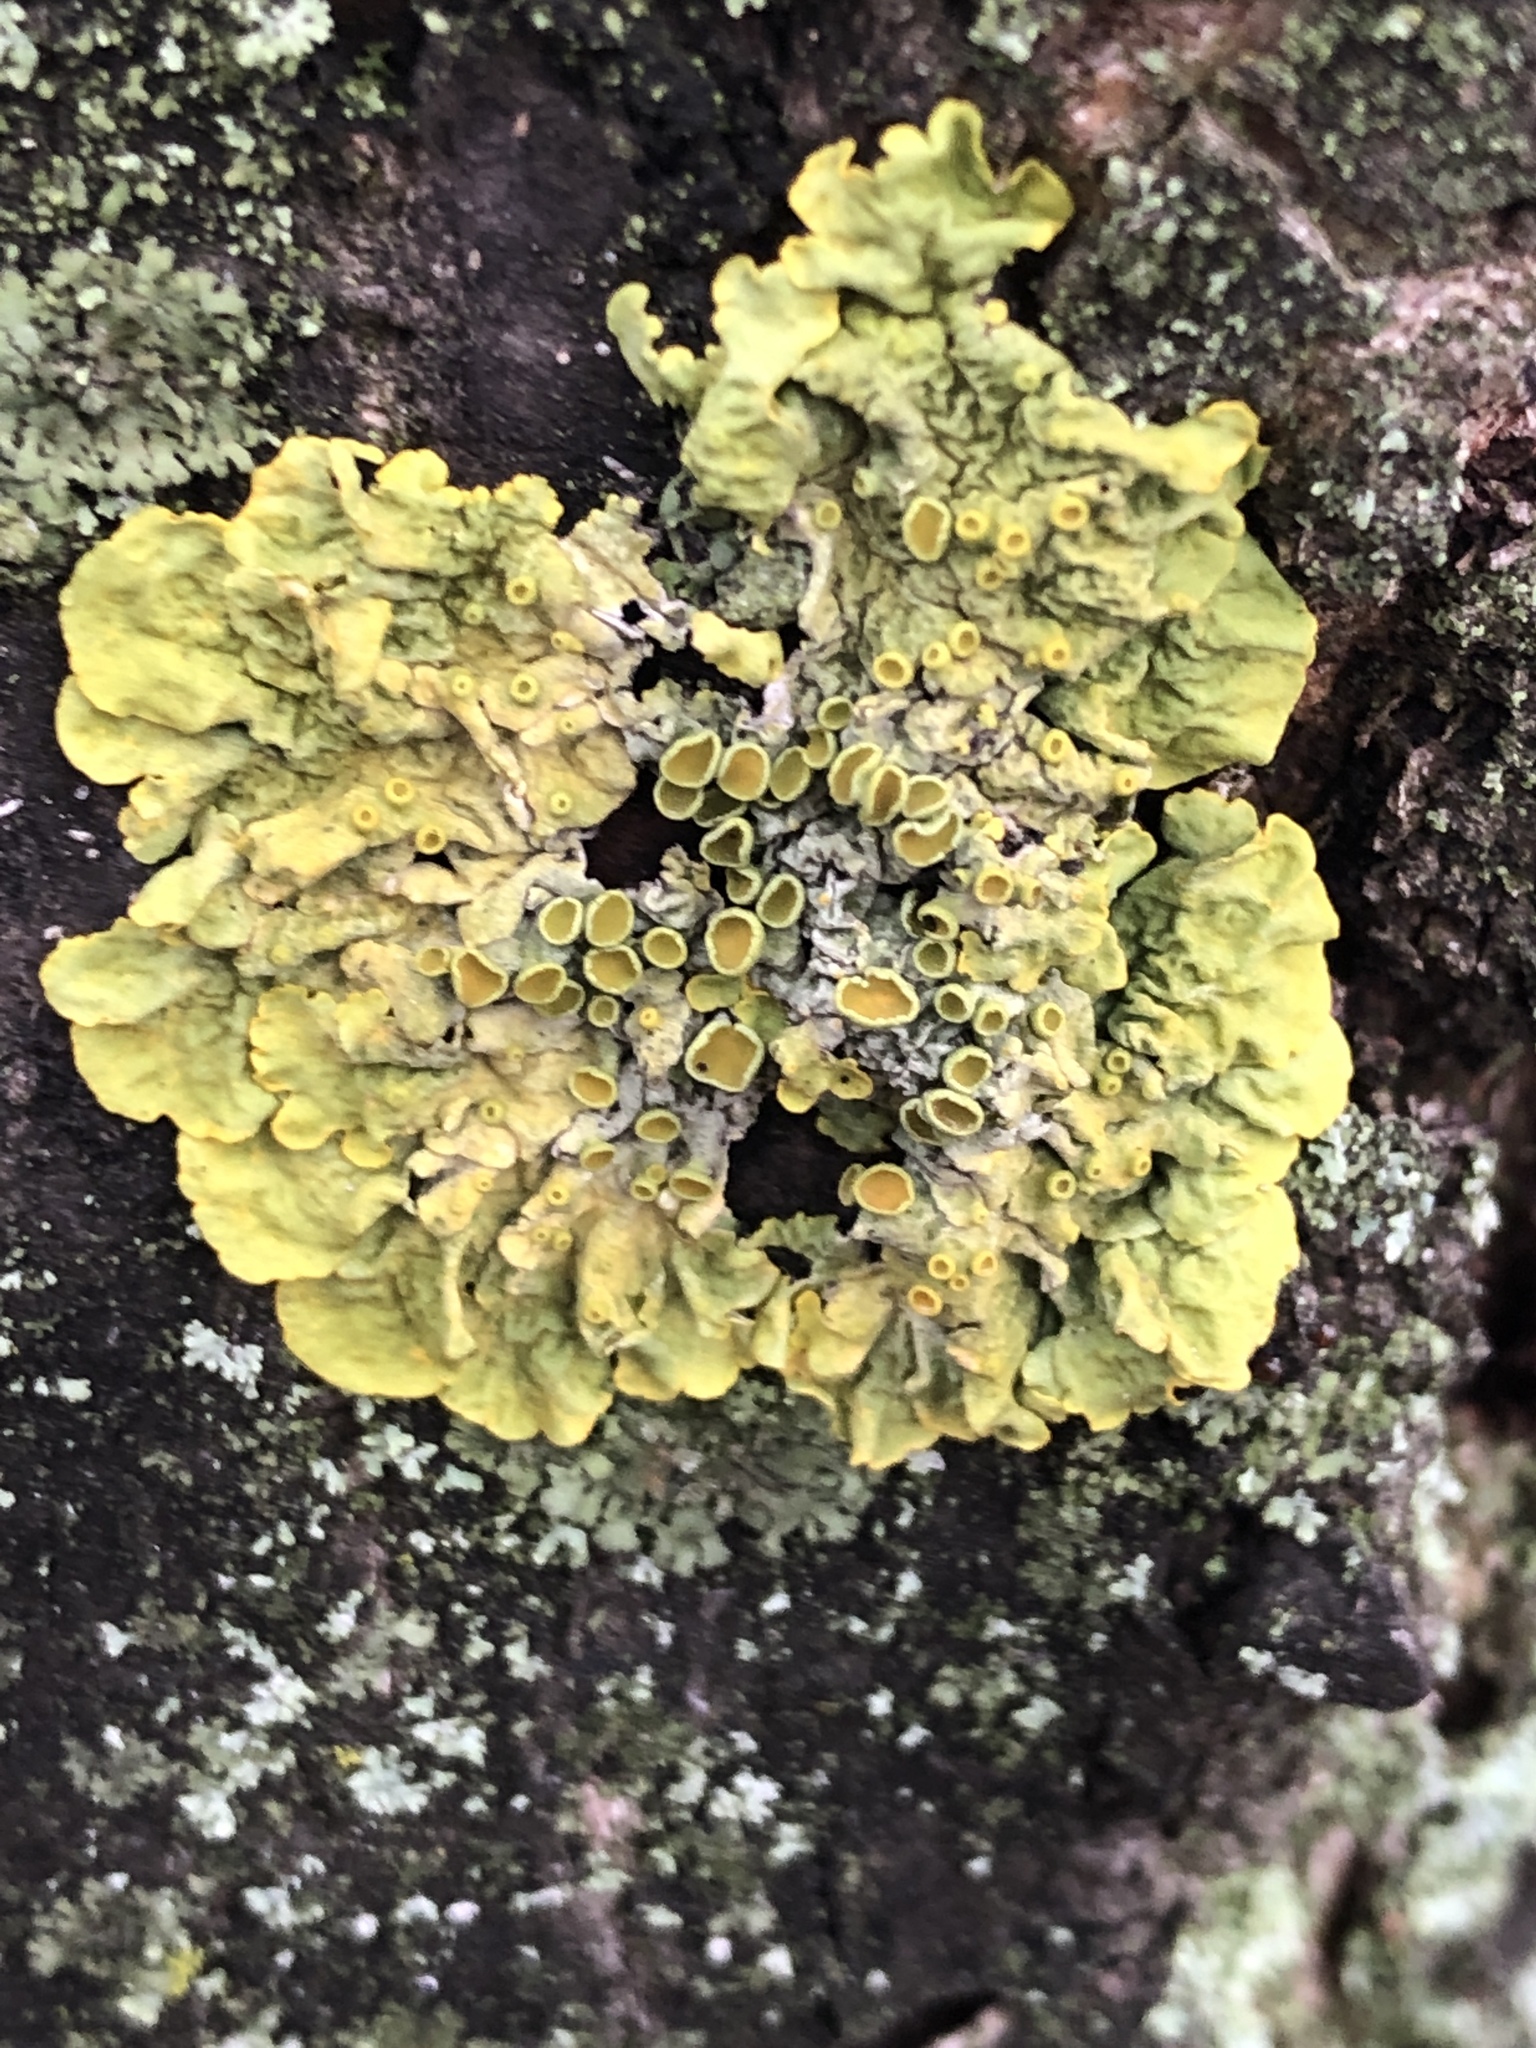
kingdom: Fungi
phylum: Ascomycota
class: Lecanoromycetes
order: Teloschistales
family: Teloschistaceae
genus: Xanthoria
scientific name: Xanthoria parietina
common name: Common orange lichen
